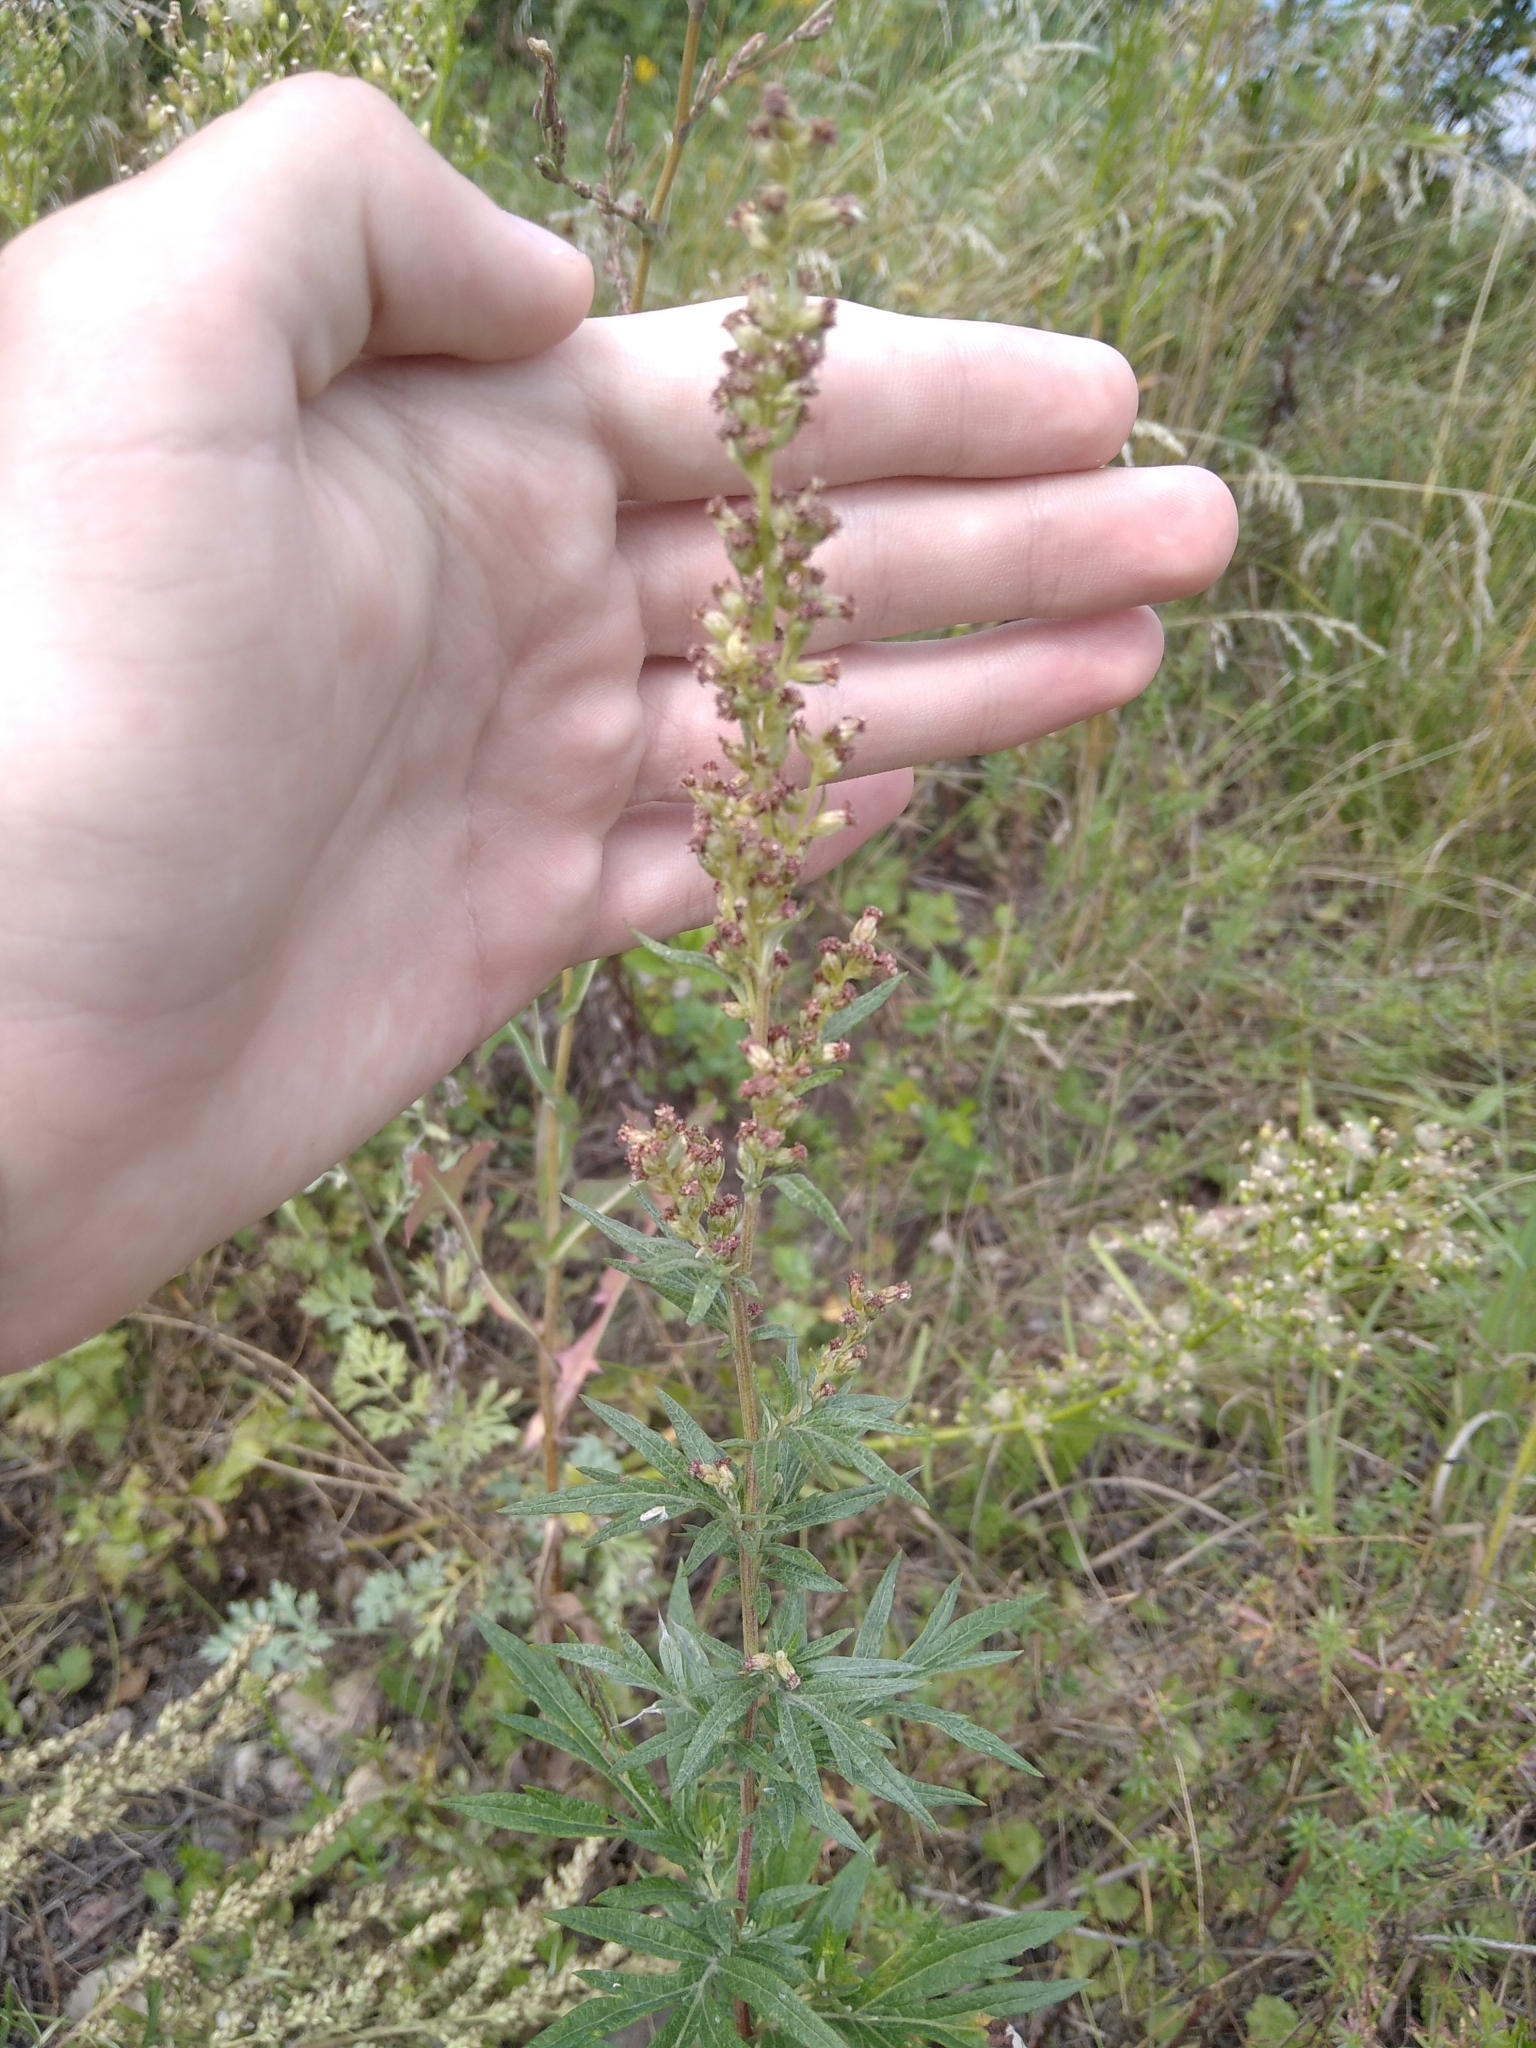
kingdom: Plantae
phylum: Tracheophyta
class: Magnoliopsida
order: Asterales
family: Asteraceae
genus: Artemisia
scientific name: Artemisia vulgaris
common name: Mugwort
